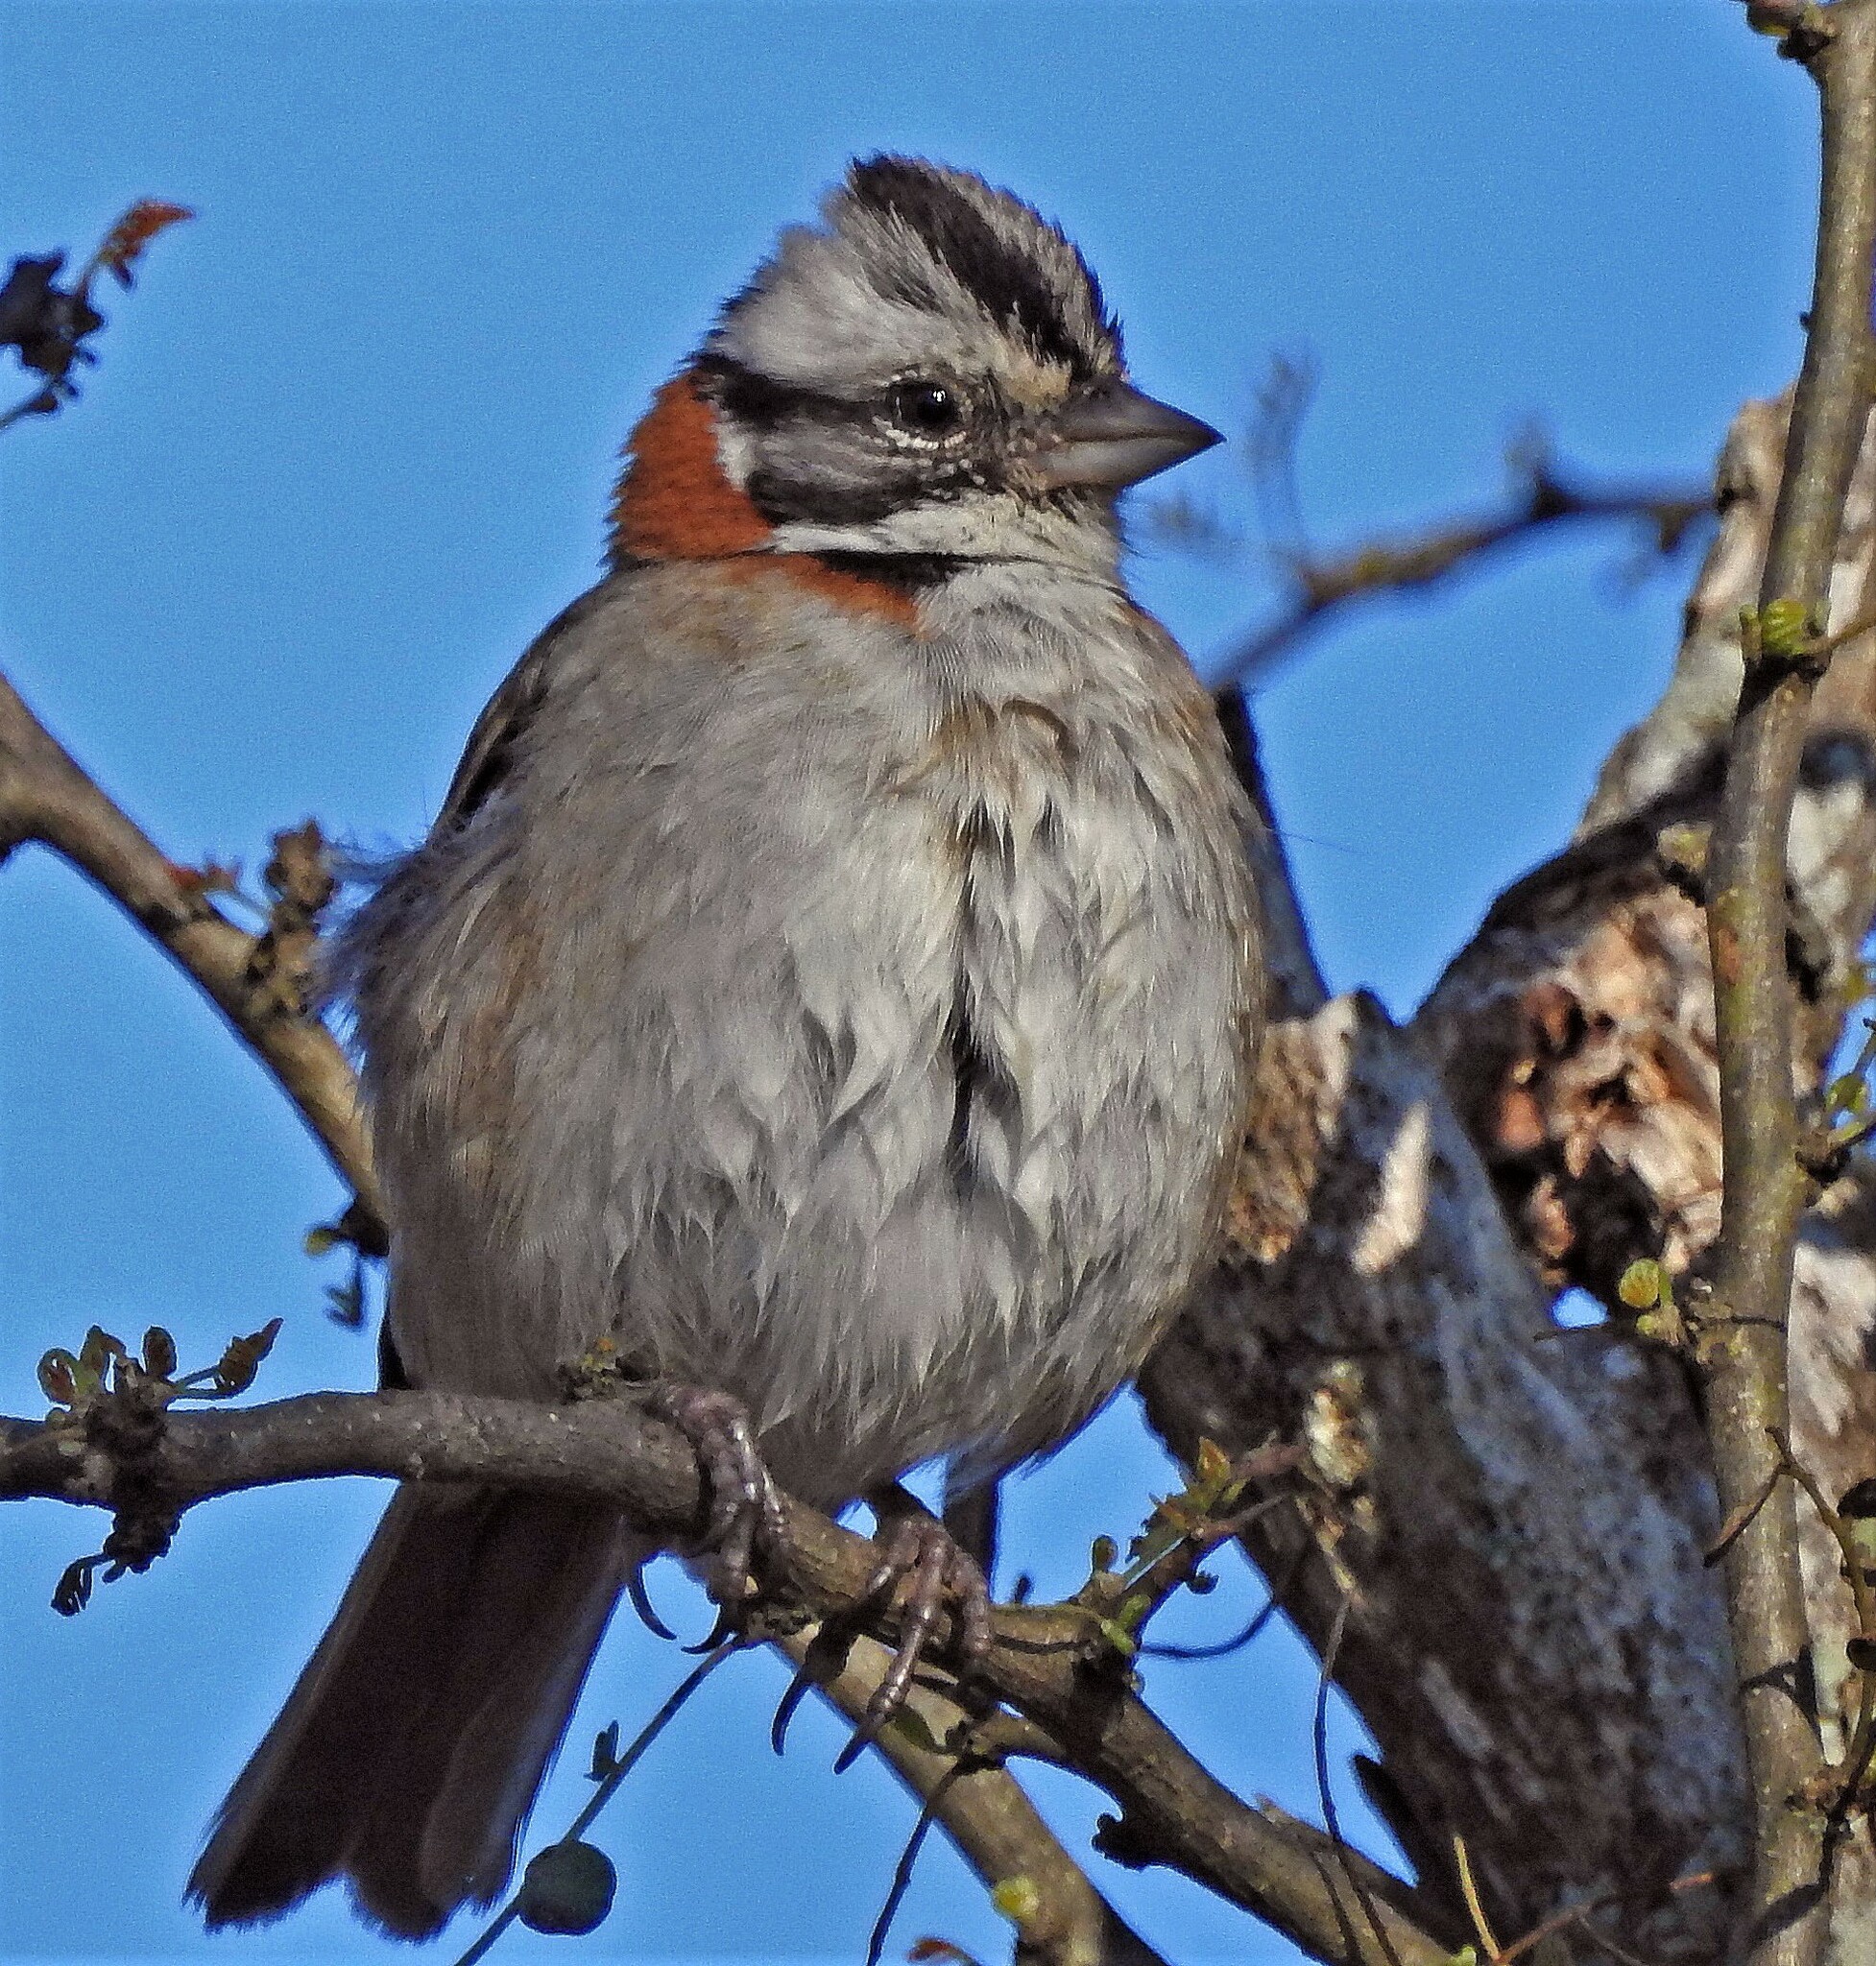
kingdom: Animalia
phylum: Chordata
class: Aves
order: Passeriformes
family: Passerellidae
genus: Zonotrichia
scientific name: Zonotrichia capensis
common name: Rufous-collared sparrow
